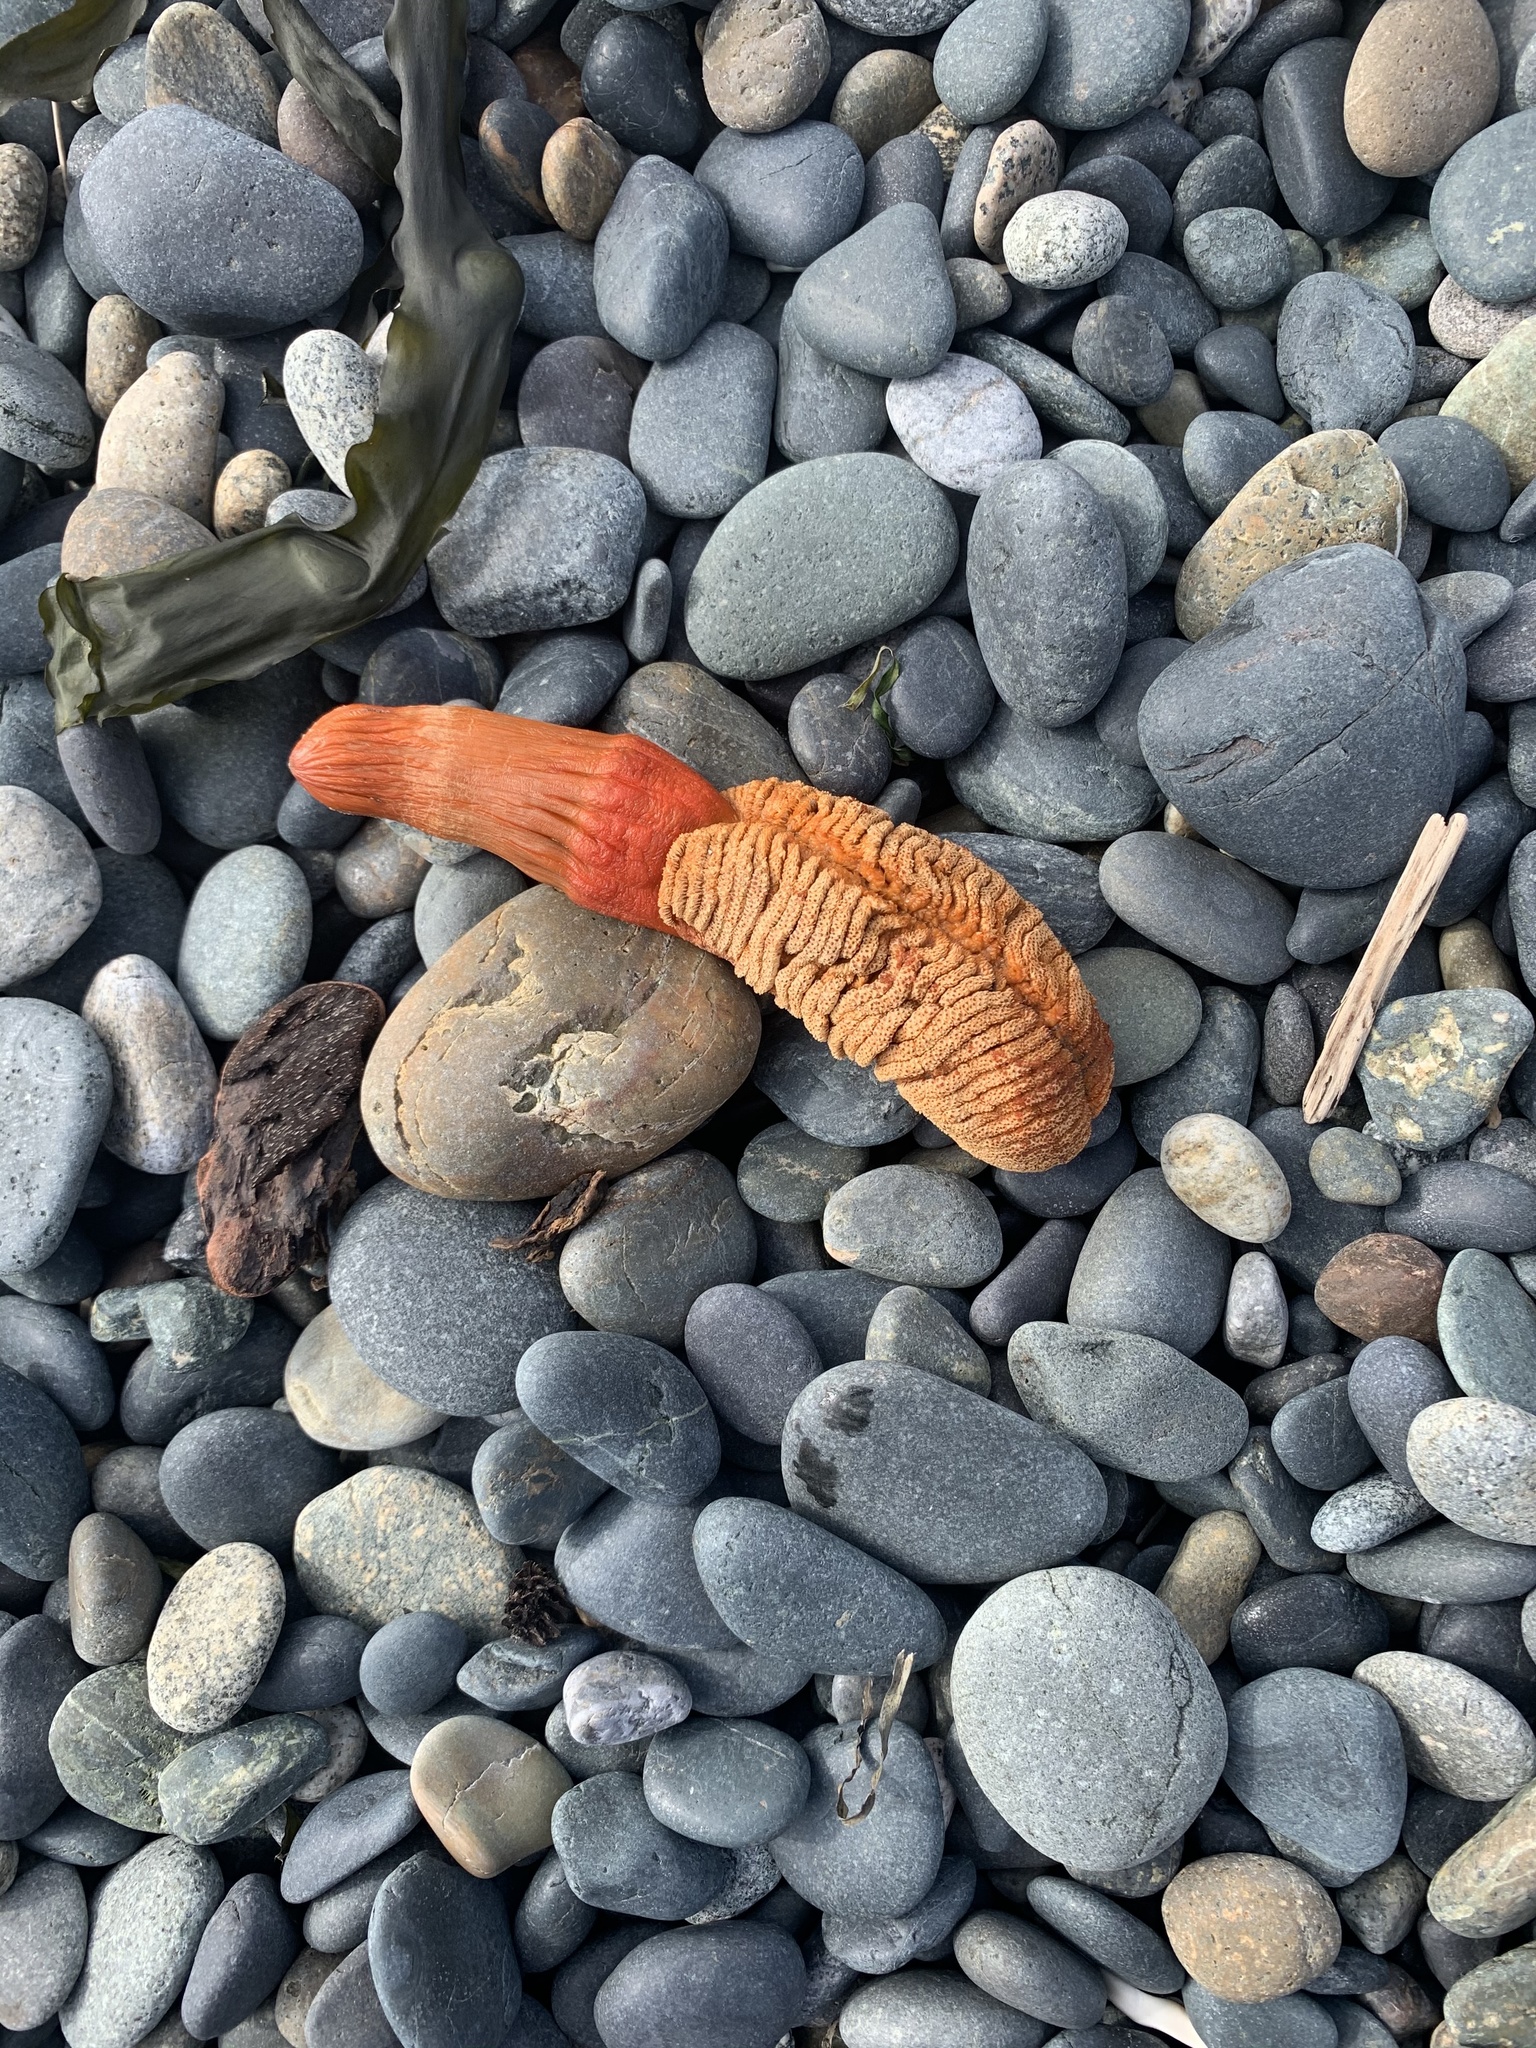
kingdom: Animalia
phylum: Cnidaria
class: Anthozoa
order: Scleralcyonacea
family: Pennatulidae
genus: Ptilosarcus
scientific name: Ptilosarcus gurneyi
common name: Gurney's sea pen
